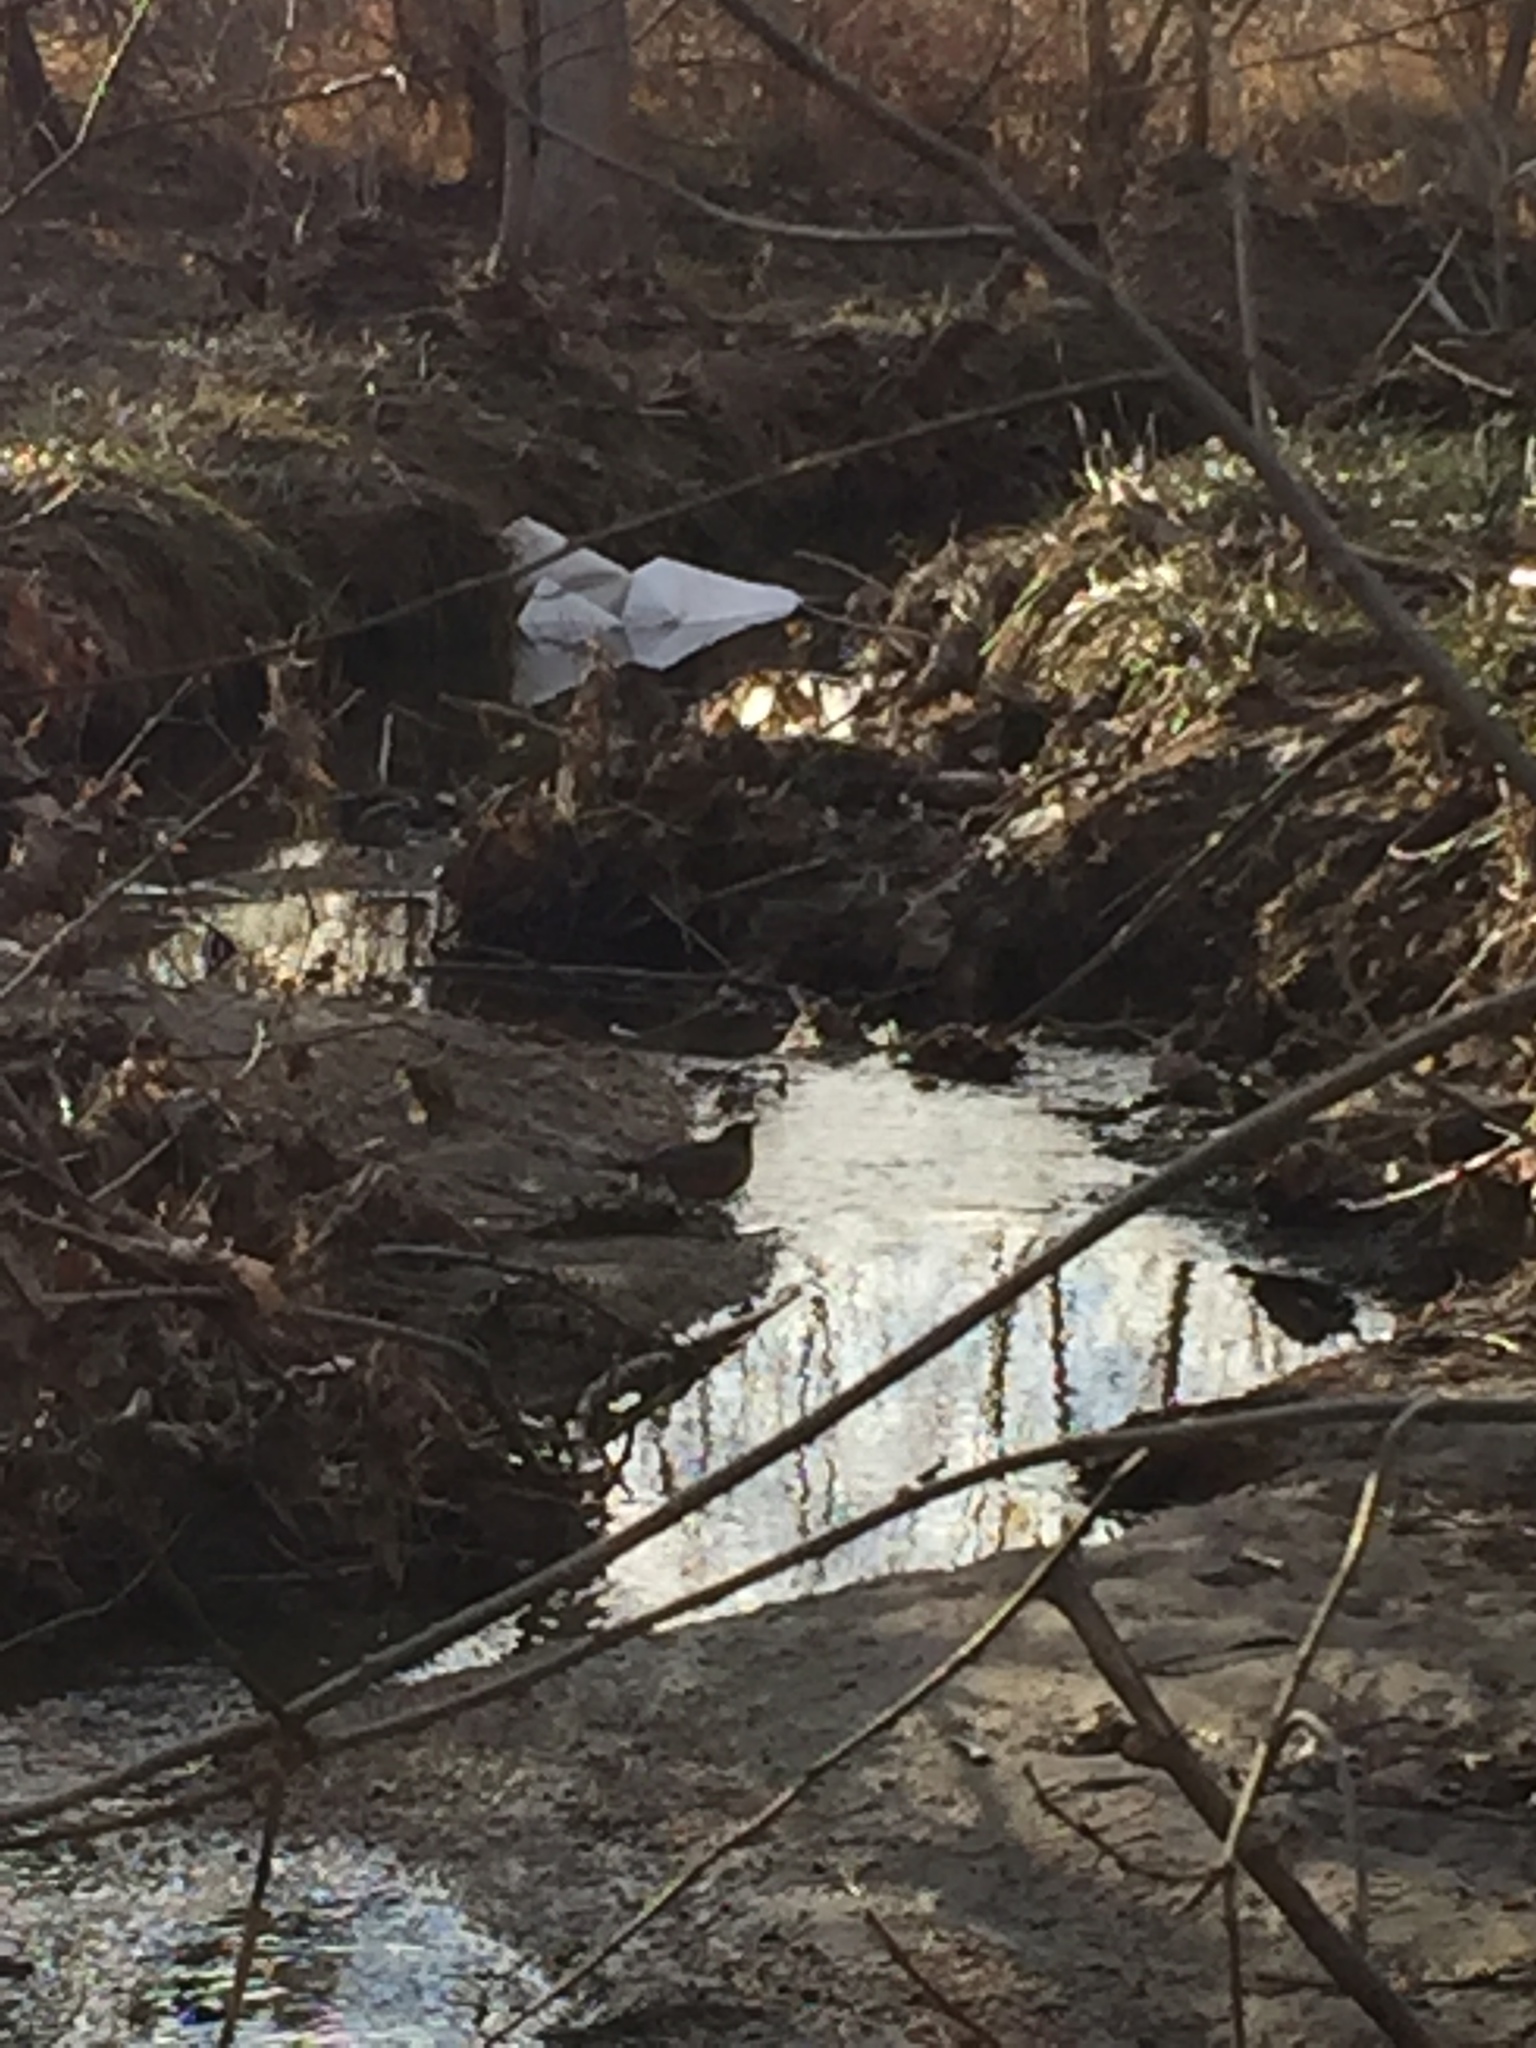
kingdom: Animalia
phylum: Chordata
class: Aves
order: Passeriformes
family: Turdidae
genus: Turdus
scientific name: Turdus migratorius
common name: American robin
